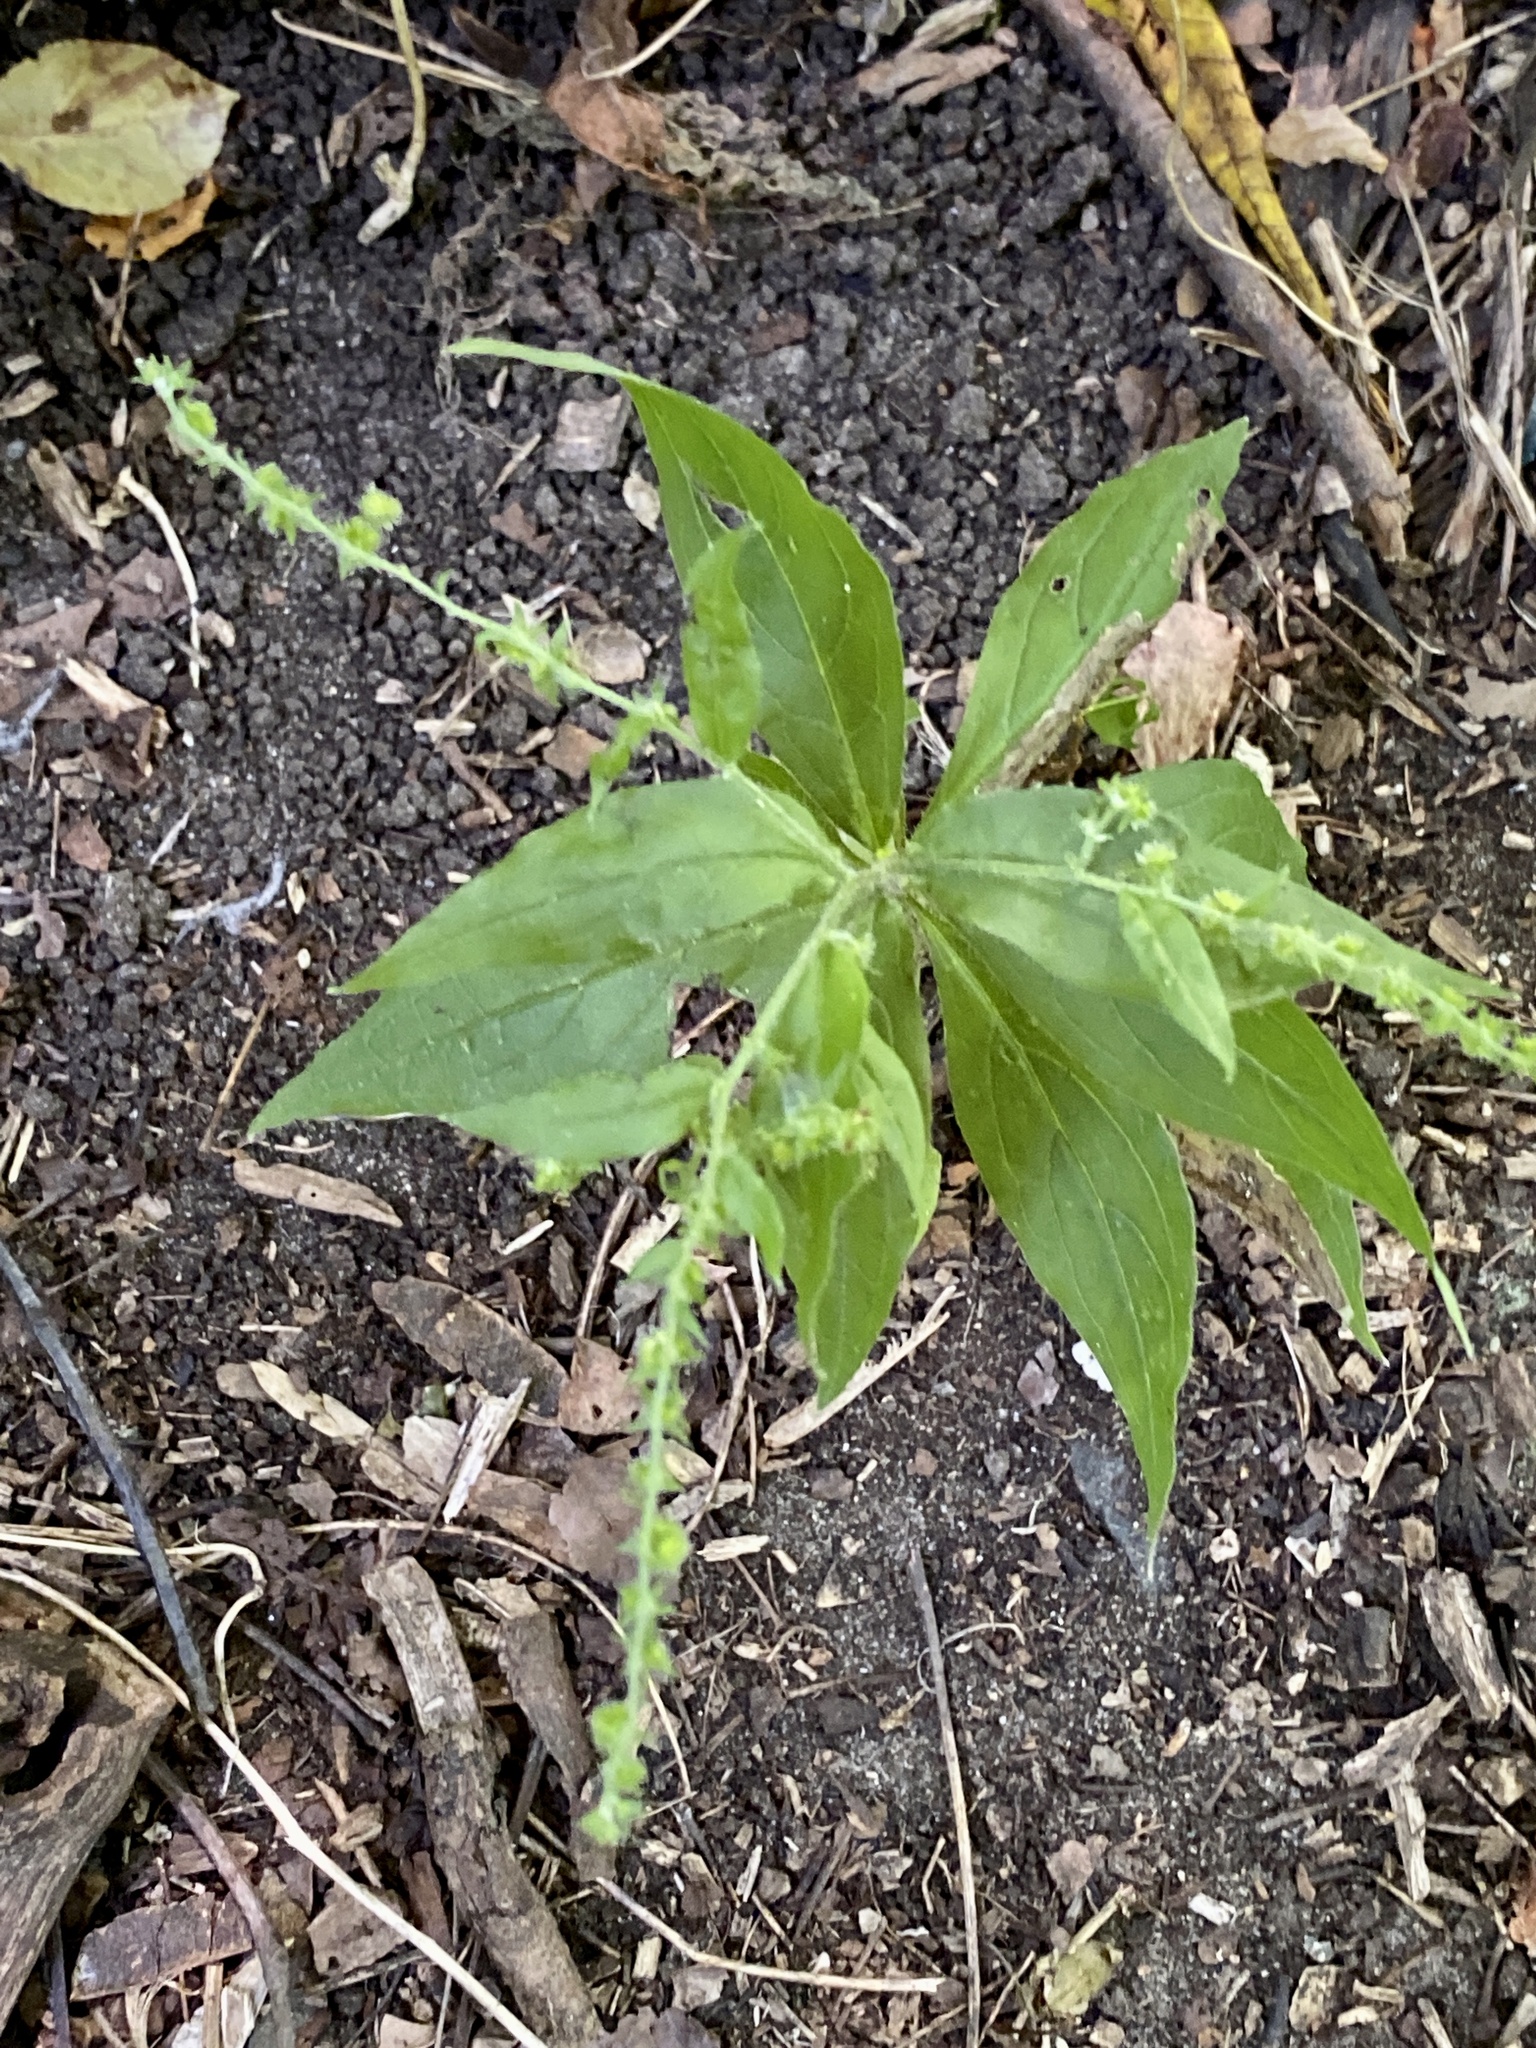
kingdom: Plantae
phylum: Tracheophyta
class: Magnoliopsida
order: Boraginales
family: Boraginaceae
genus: Hackelia
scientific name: Hackelia virginiana
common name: Beggar's-lice
